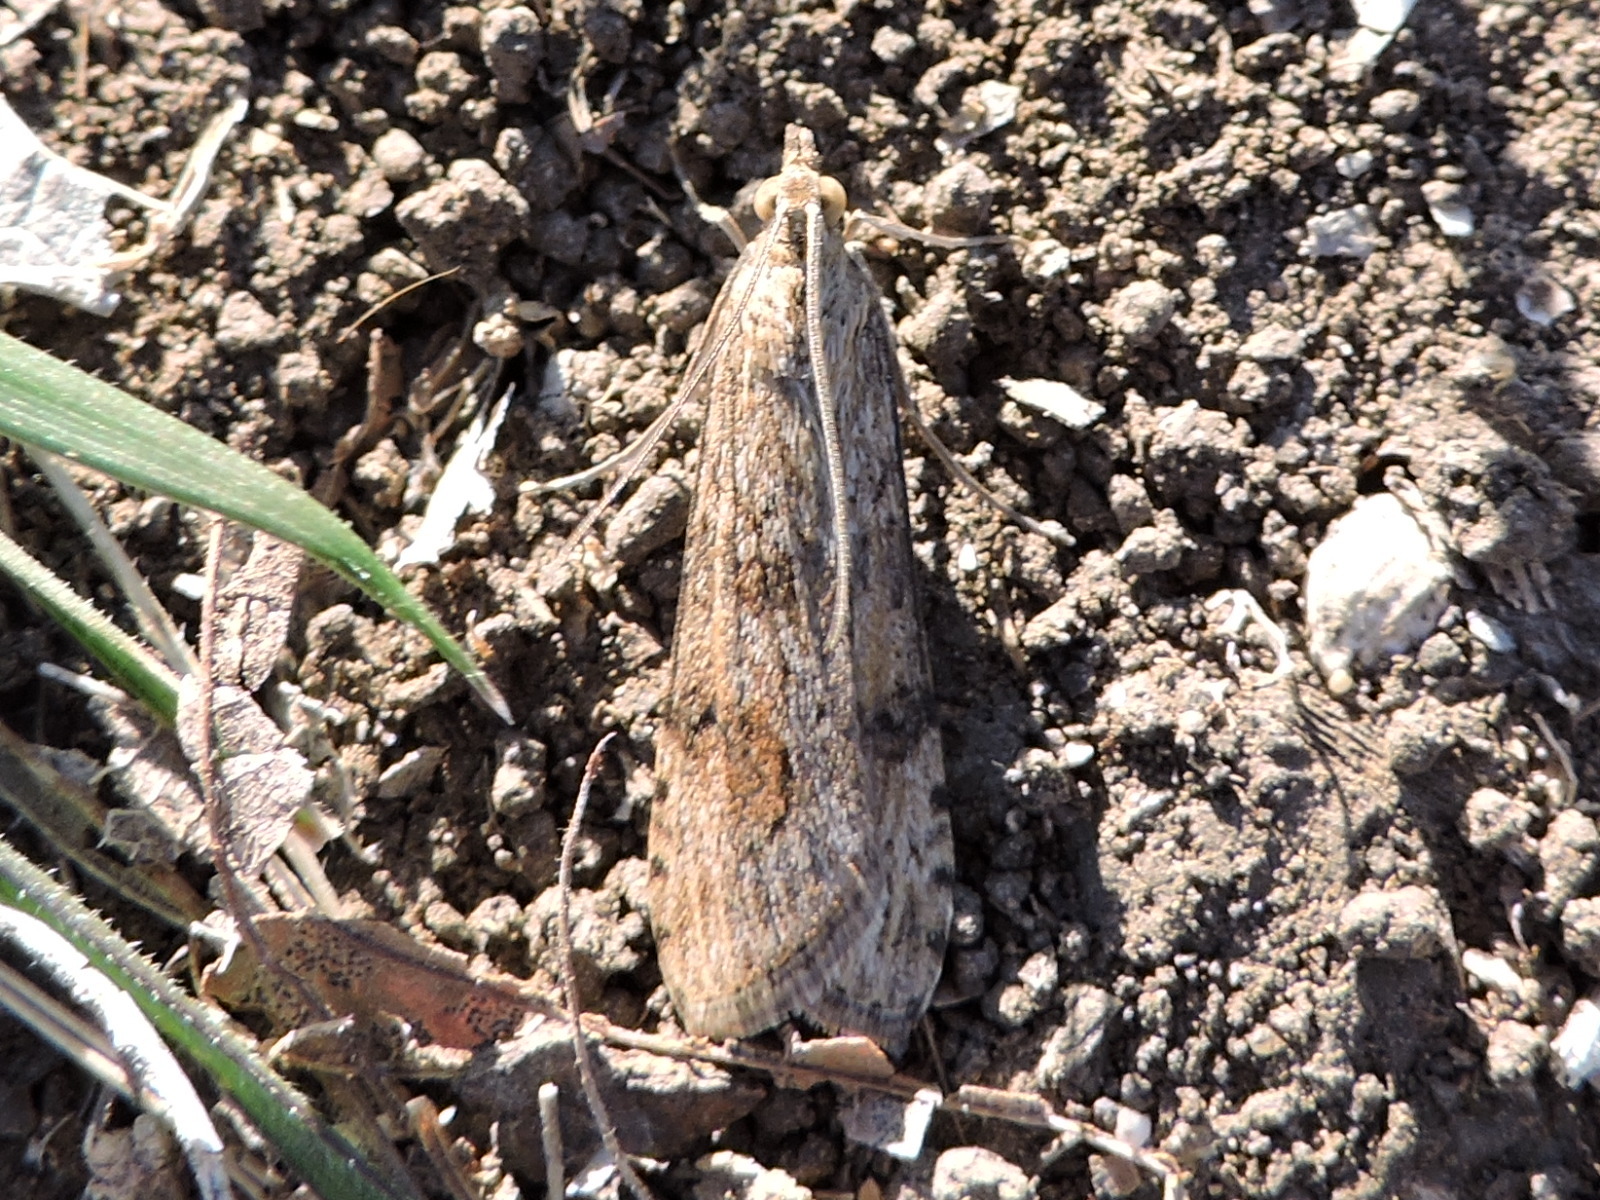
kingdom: Animalia
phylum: Arthropoda
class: Insecta
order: Lepidoptera
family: Crambidae
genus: Nomophila
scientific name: Nomophila nearctica
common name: American rush veneer
